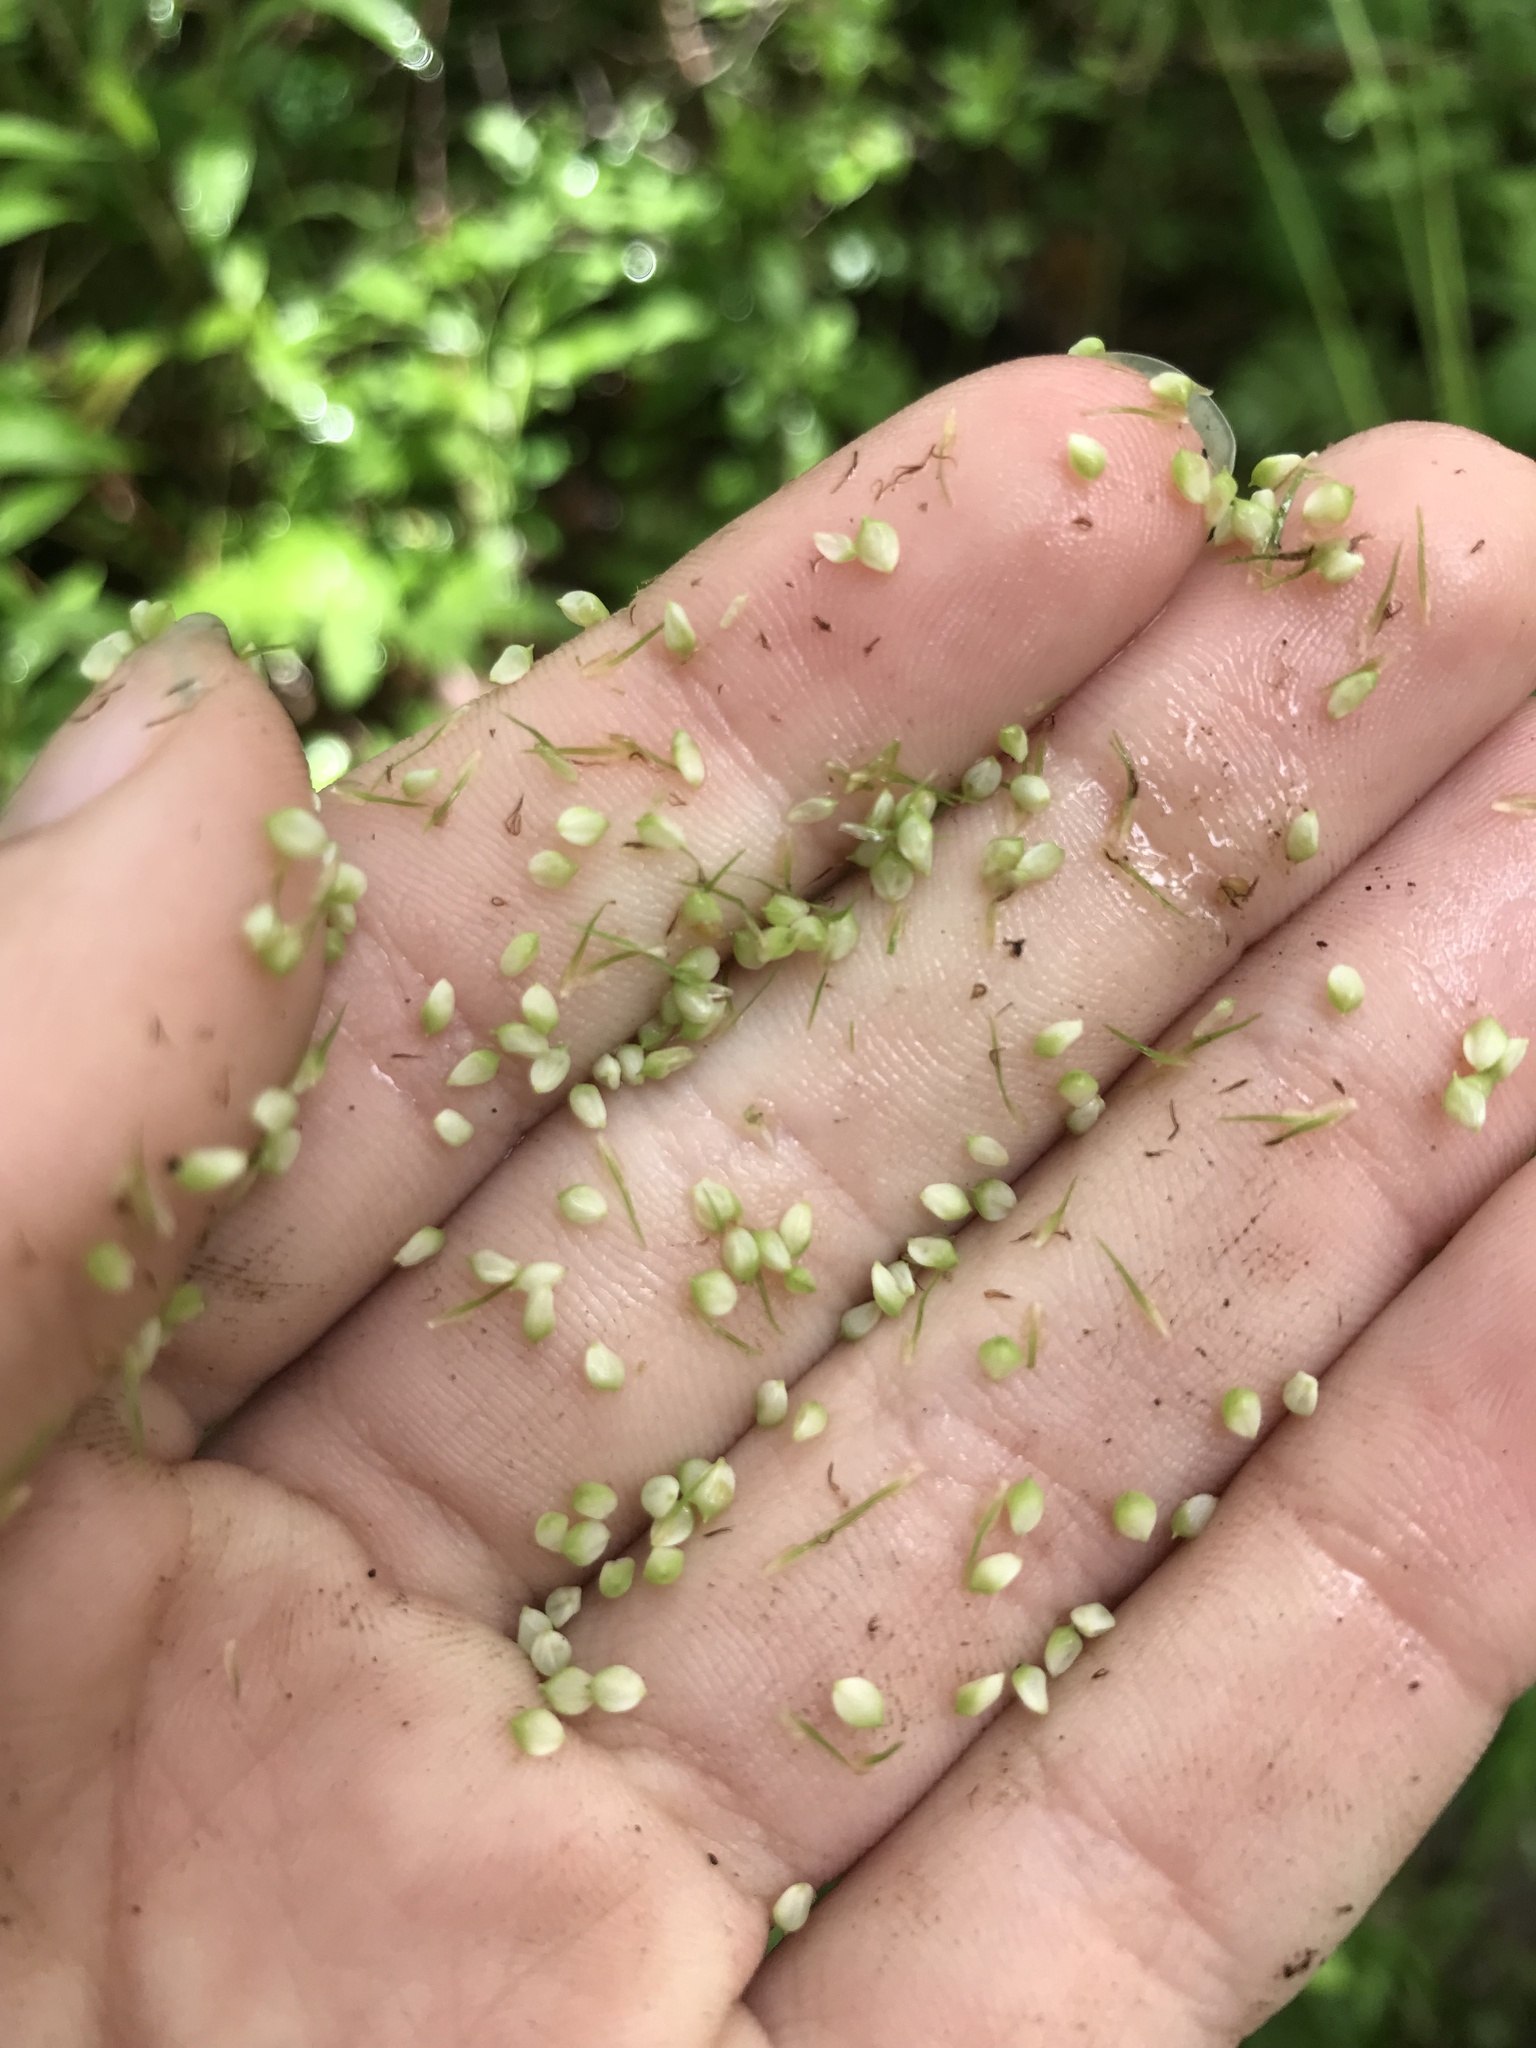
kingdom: Plantae
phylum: Tracheophyta
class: Liliopsida
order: Poales
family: Cyperaceae
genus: Carex
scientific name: Carex crinita
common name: Fringed sedge
